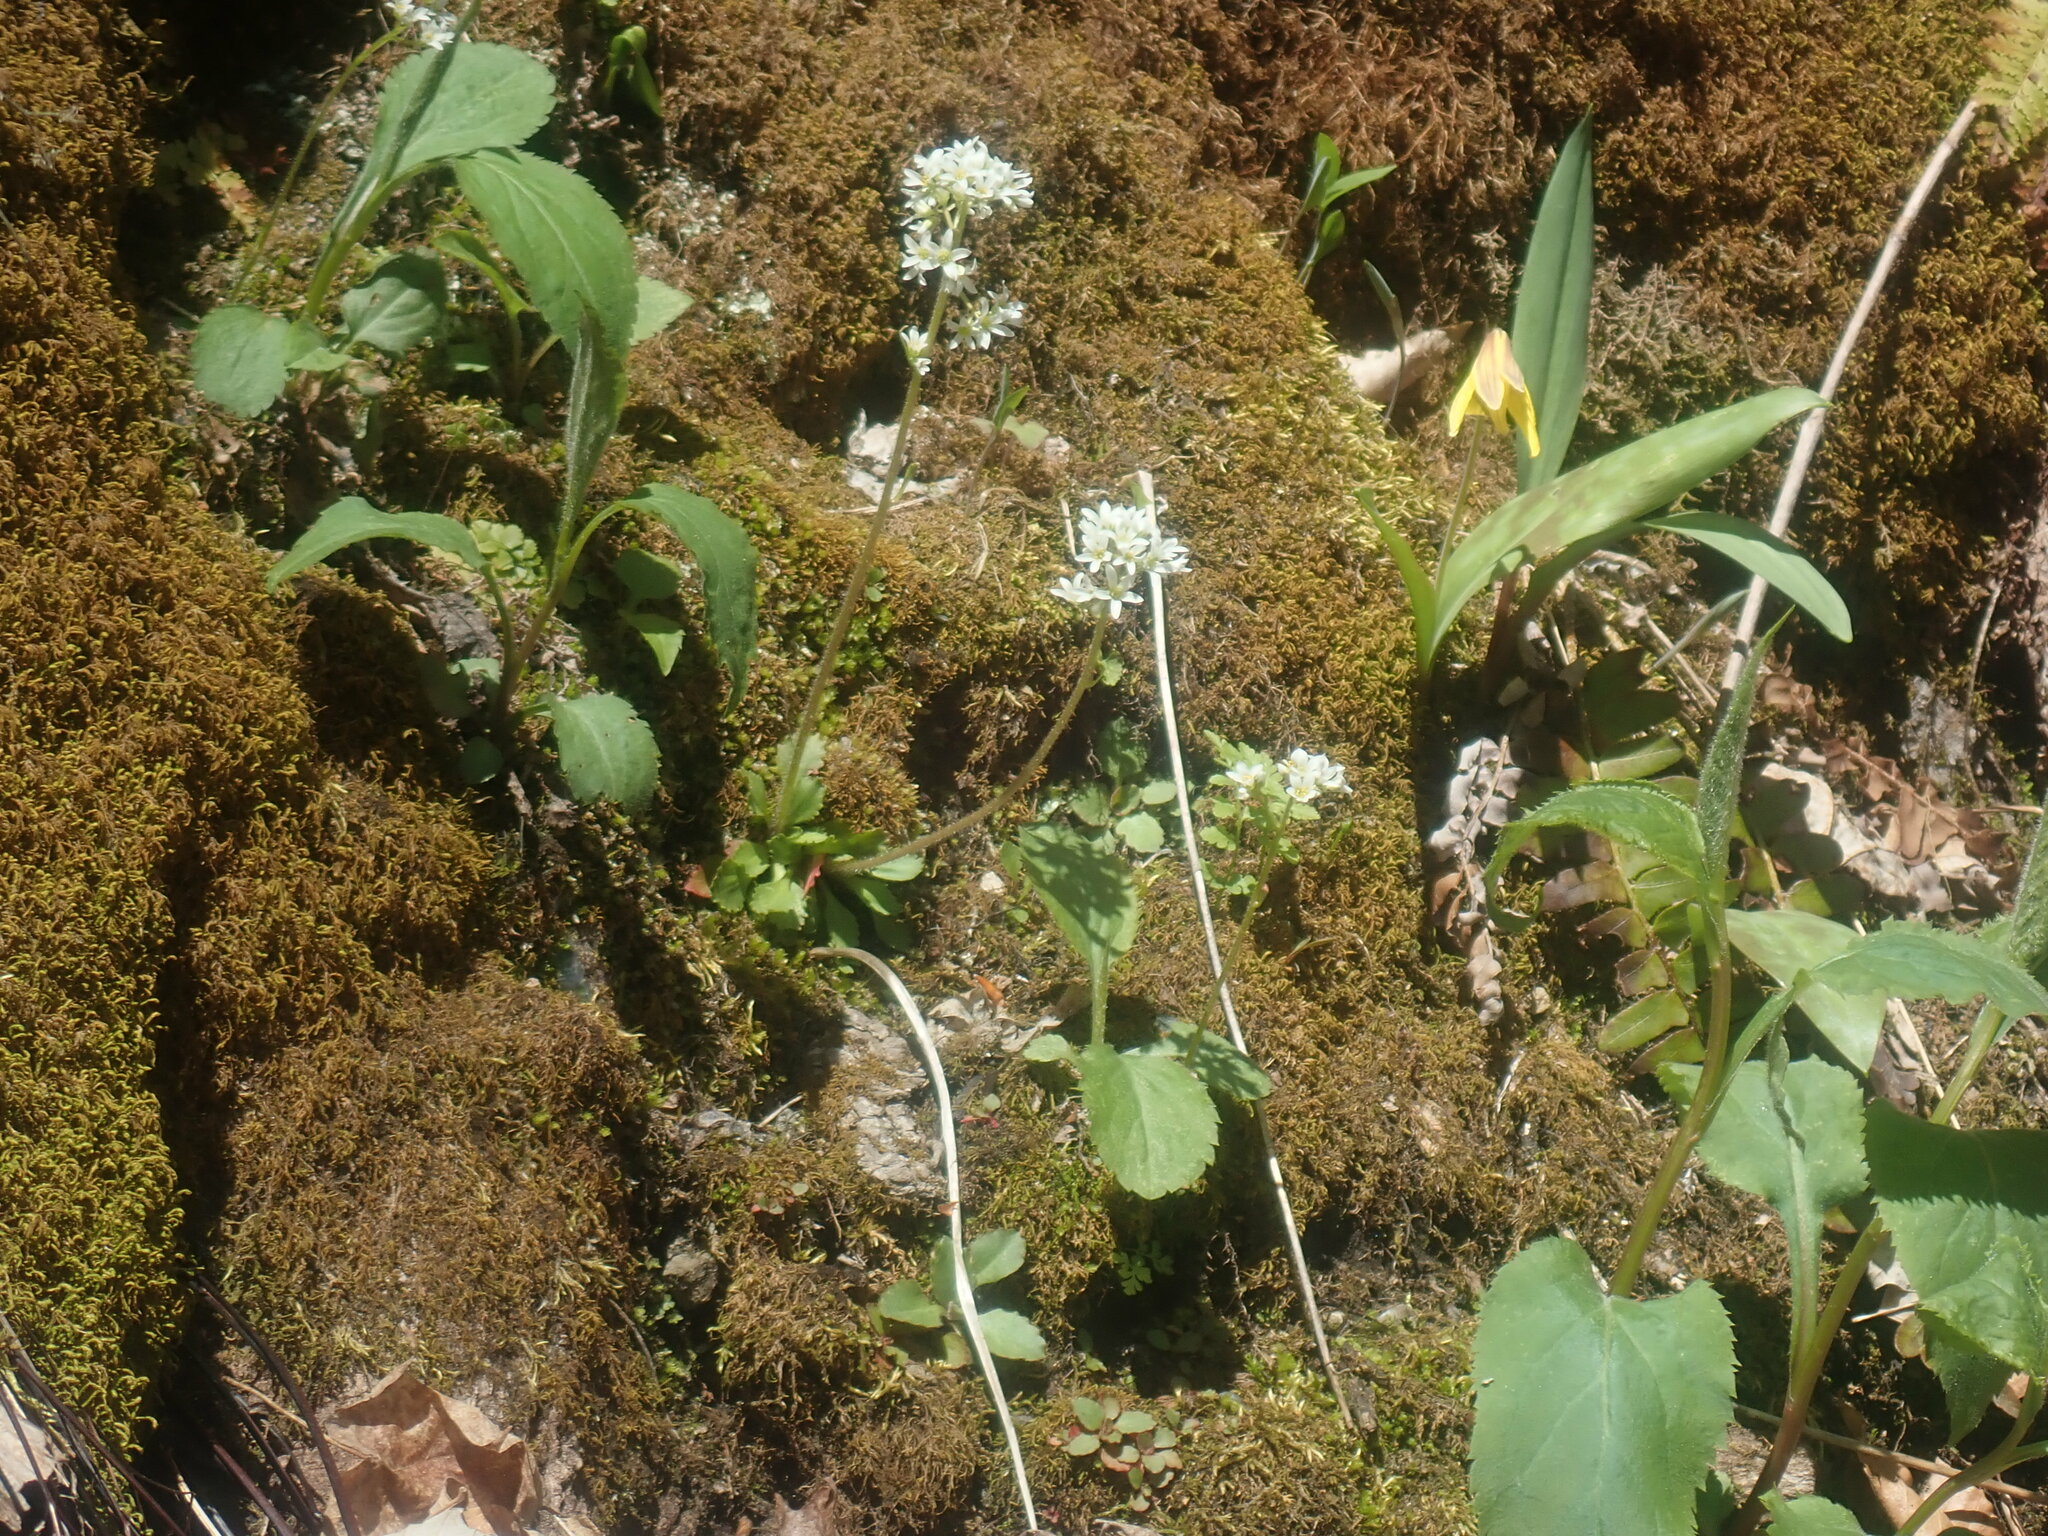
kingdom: Plantae
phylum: Tracheophyta
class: Magnoliopsida
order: Saxifragales
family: Saxifragaceae
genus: Micranthes
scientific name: Micranthes virginiensis
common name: Early saxifrage
